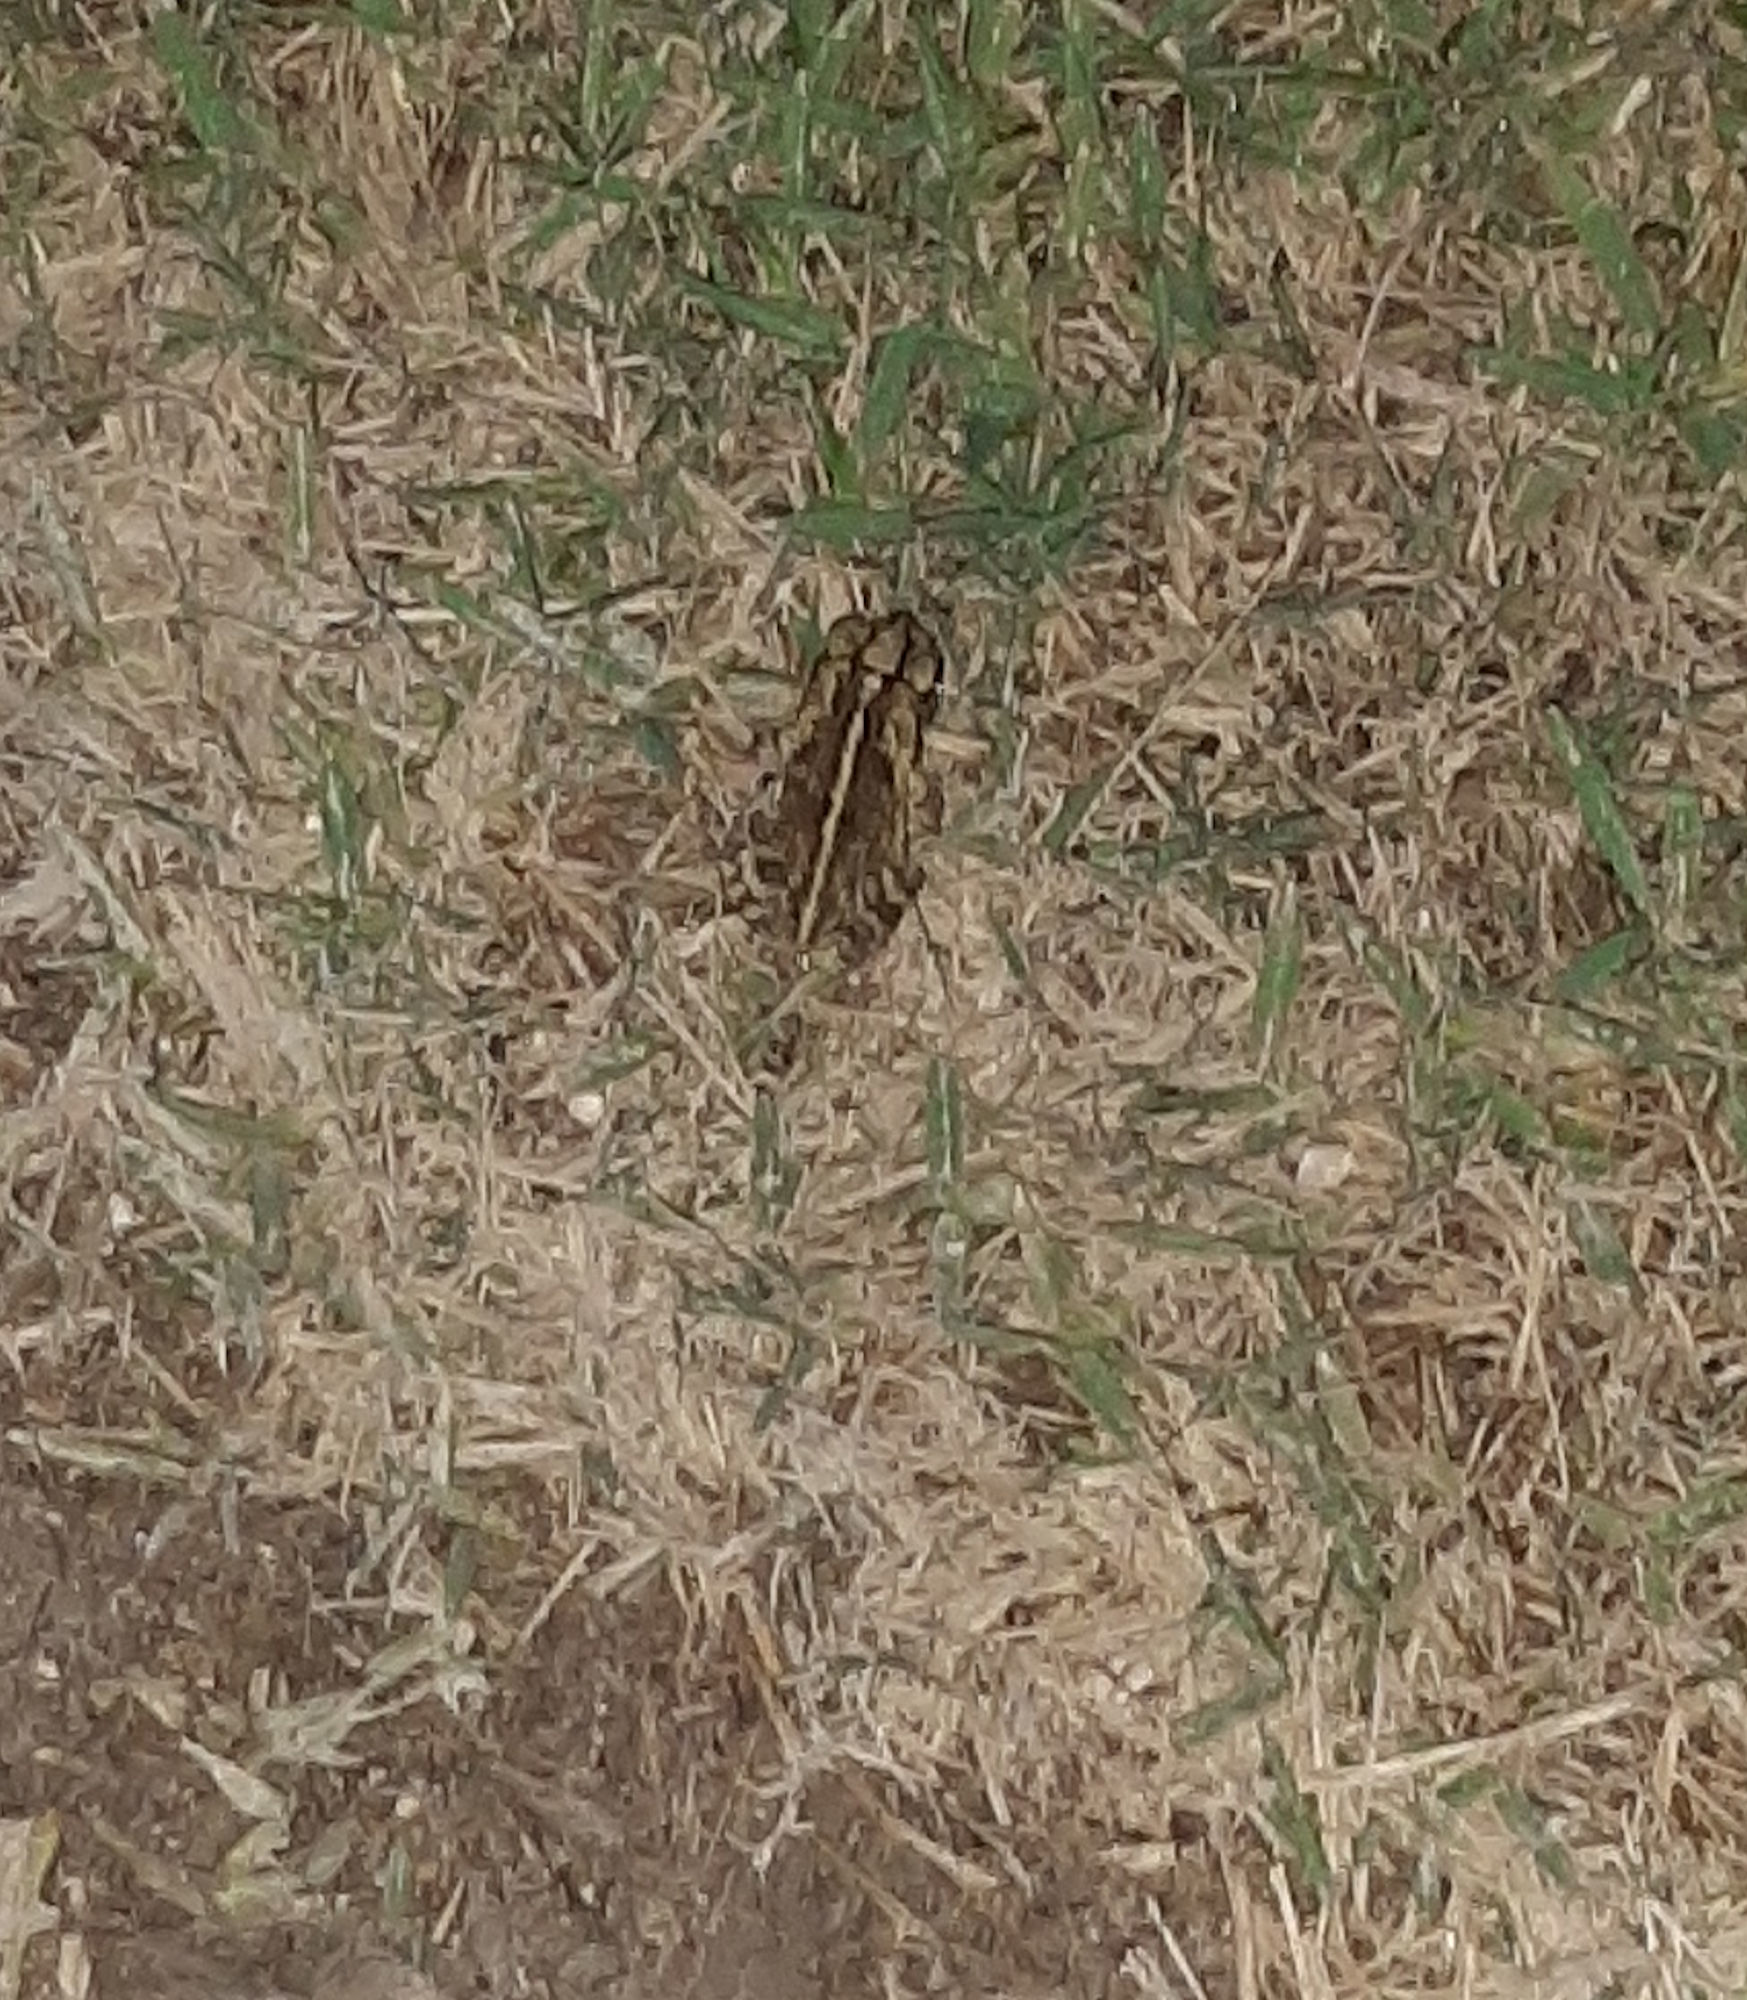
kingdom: Animalia
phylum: Chordata
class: Amphibia
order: Anura
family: Bufonidae
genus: Incilius
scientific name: Incilius nebulifer
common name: Gulf coast toad
